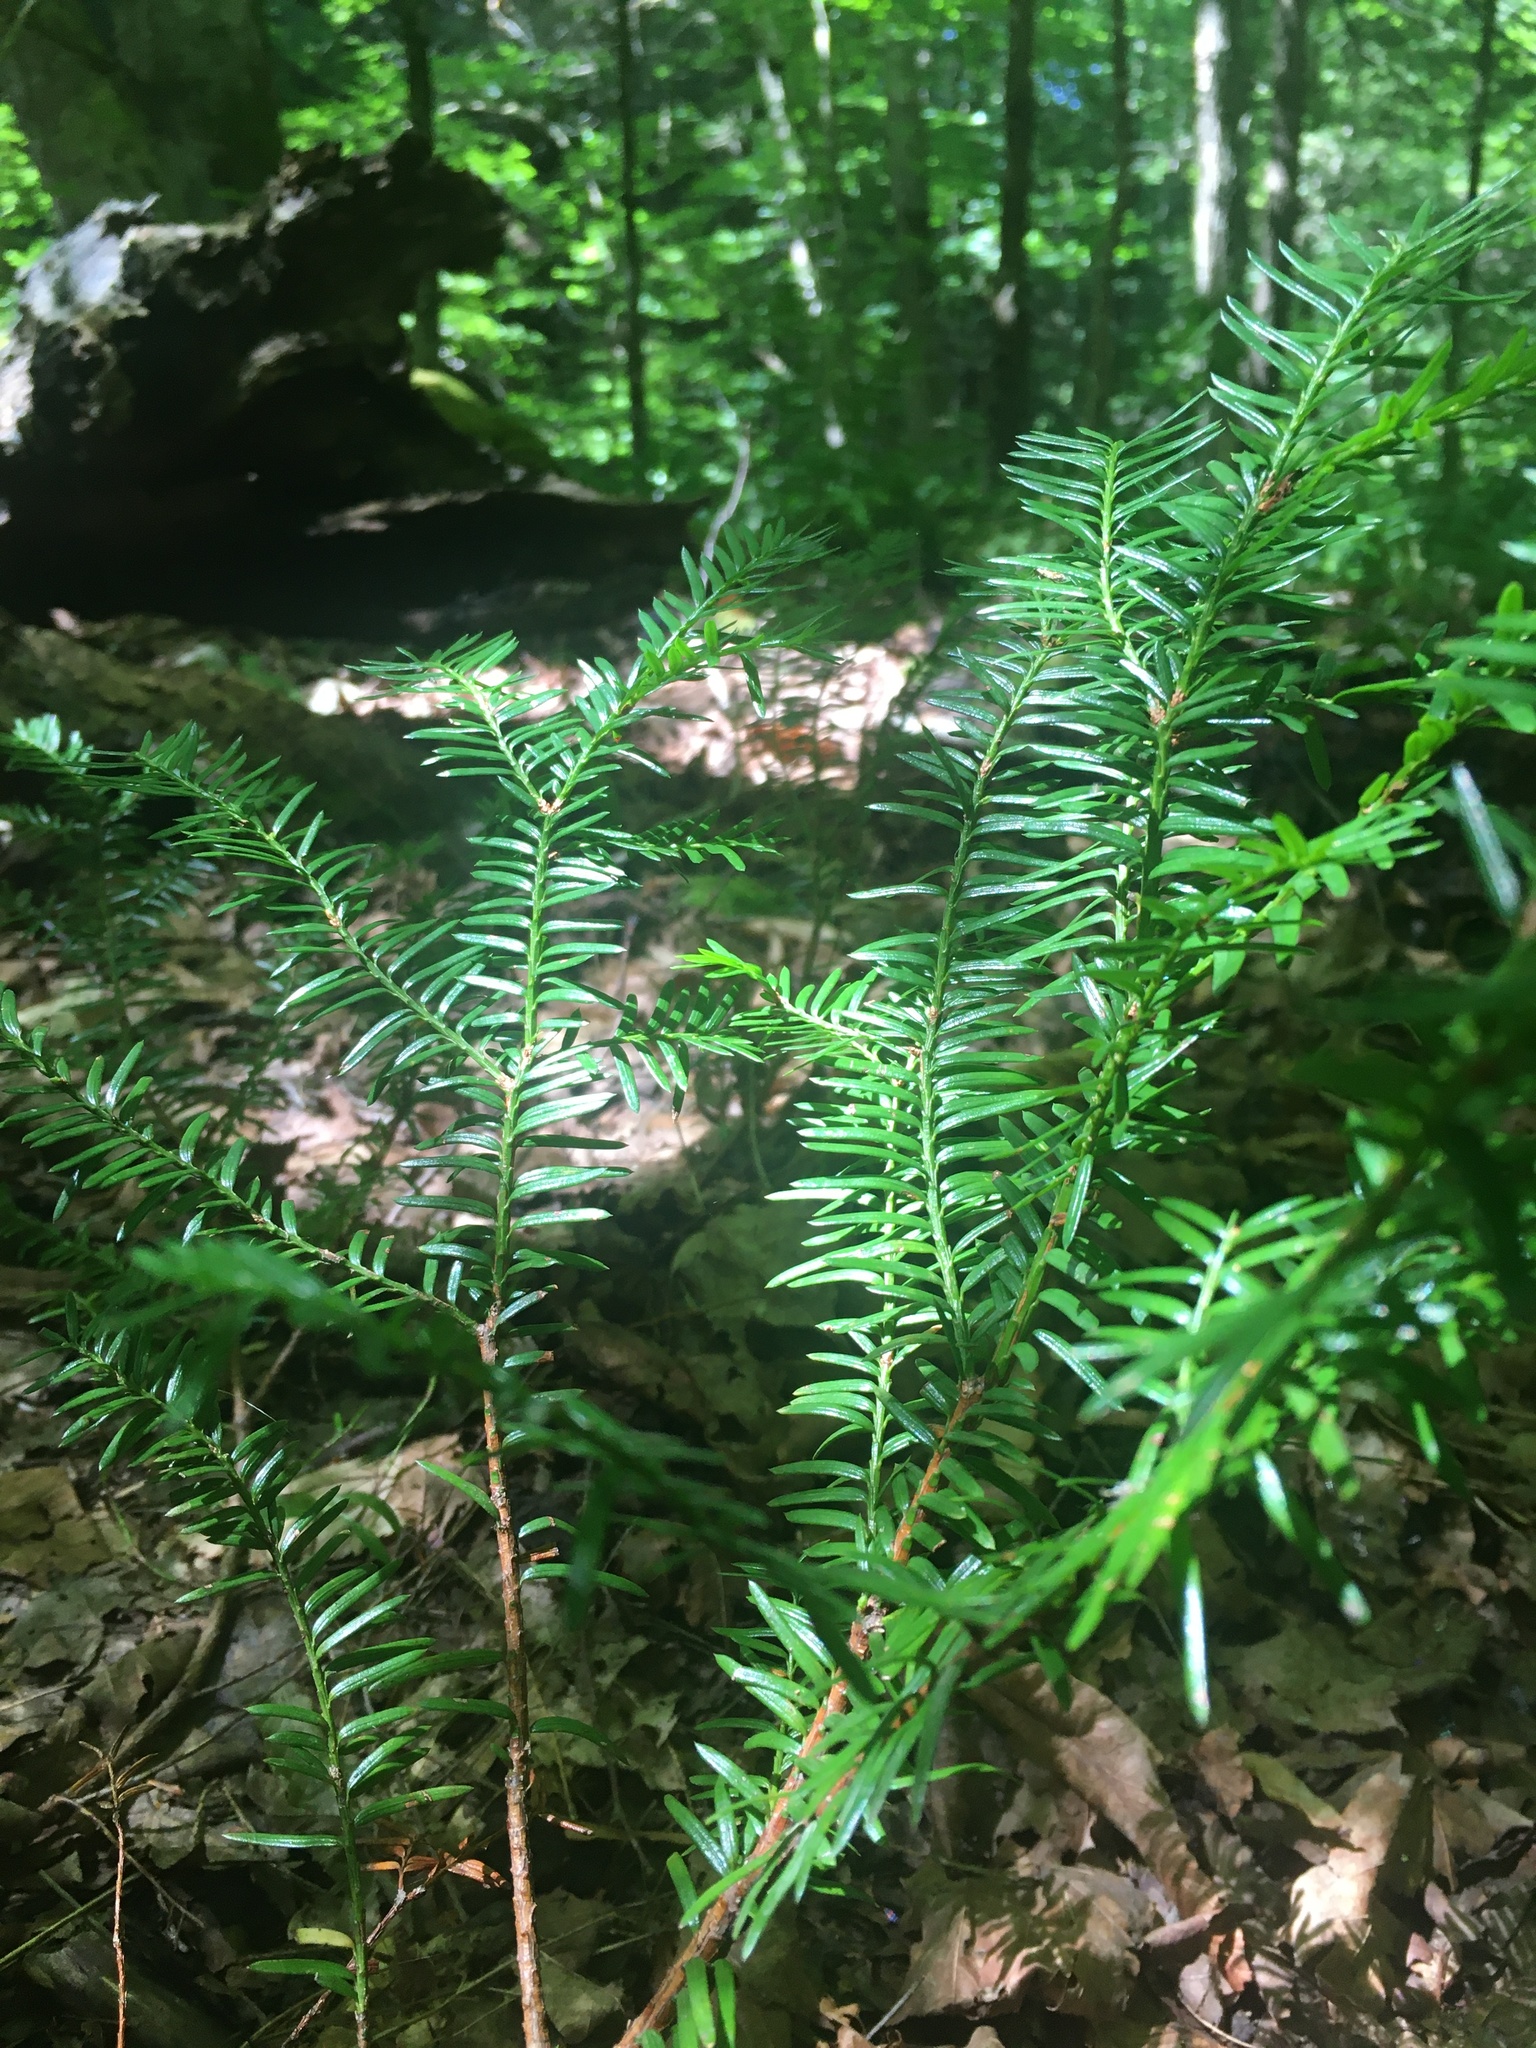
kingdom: Plantae
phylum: Tracheophyta
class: Pinopsida
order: Pinales
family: Taxaceae
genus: Taxus
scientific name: Taxus canadensis
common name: American yew
